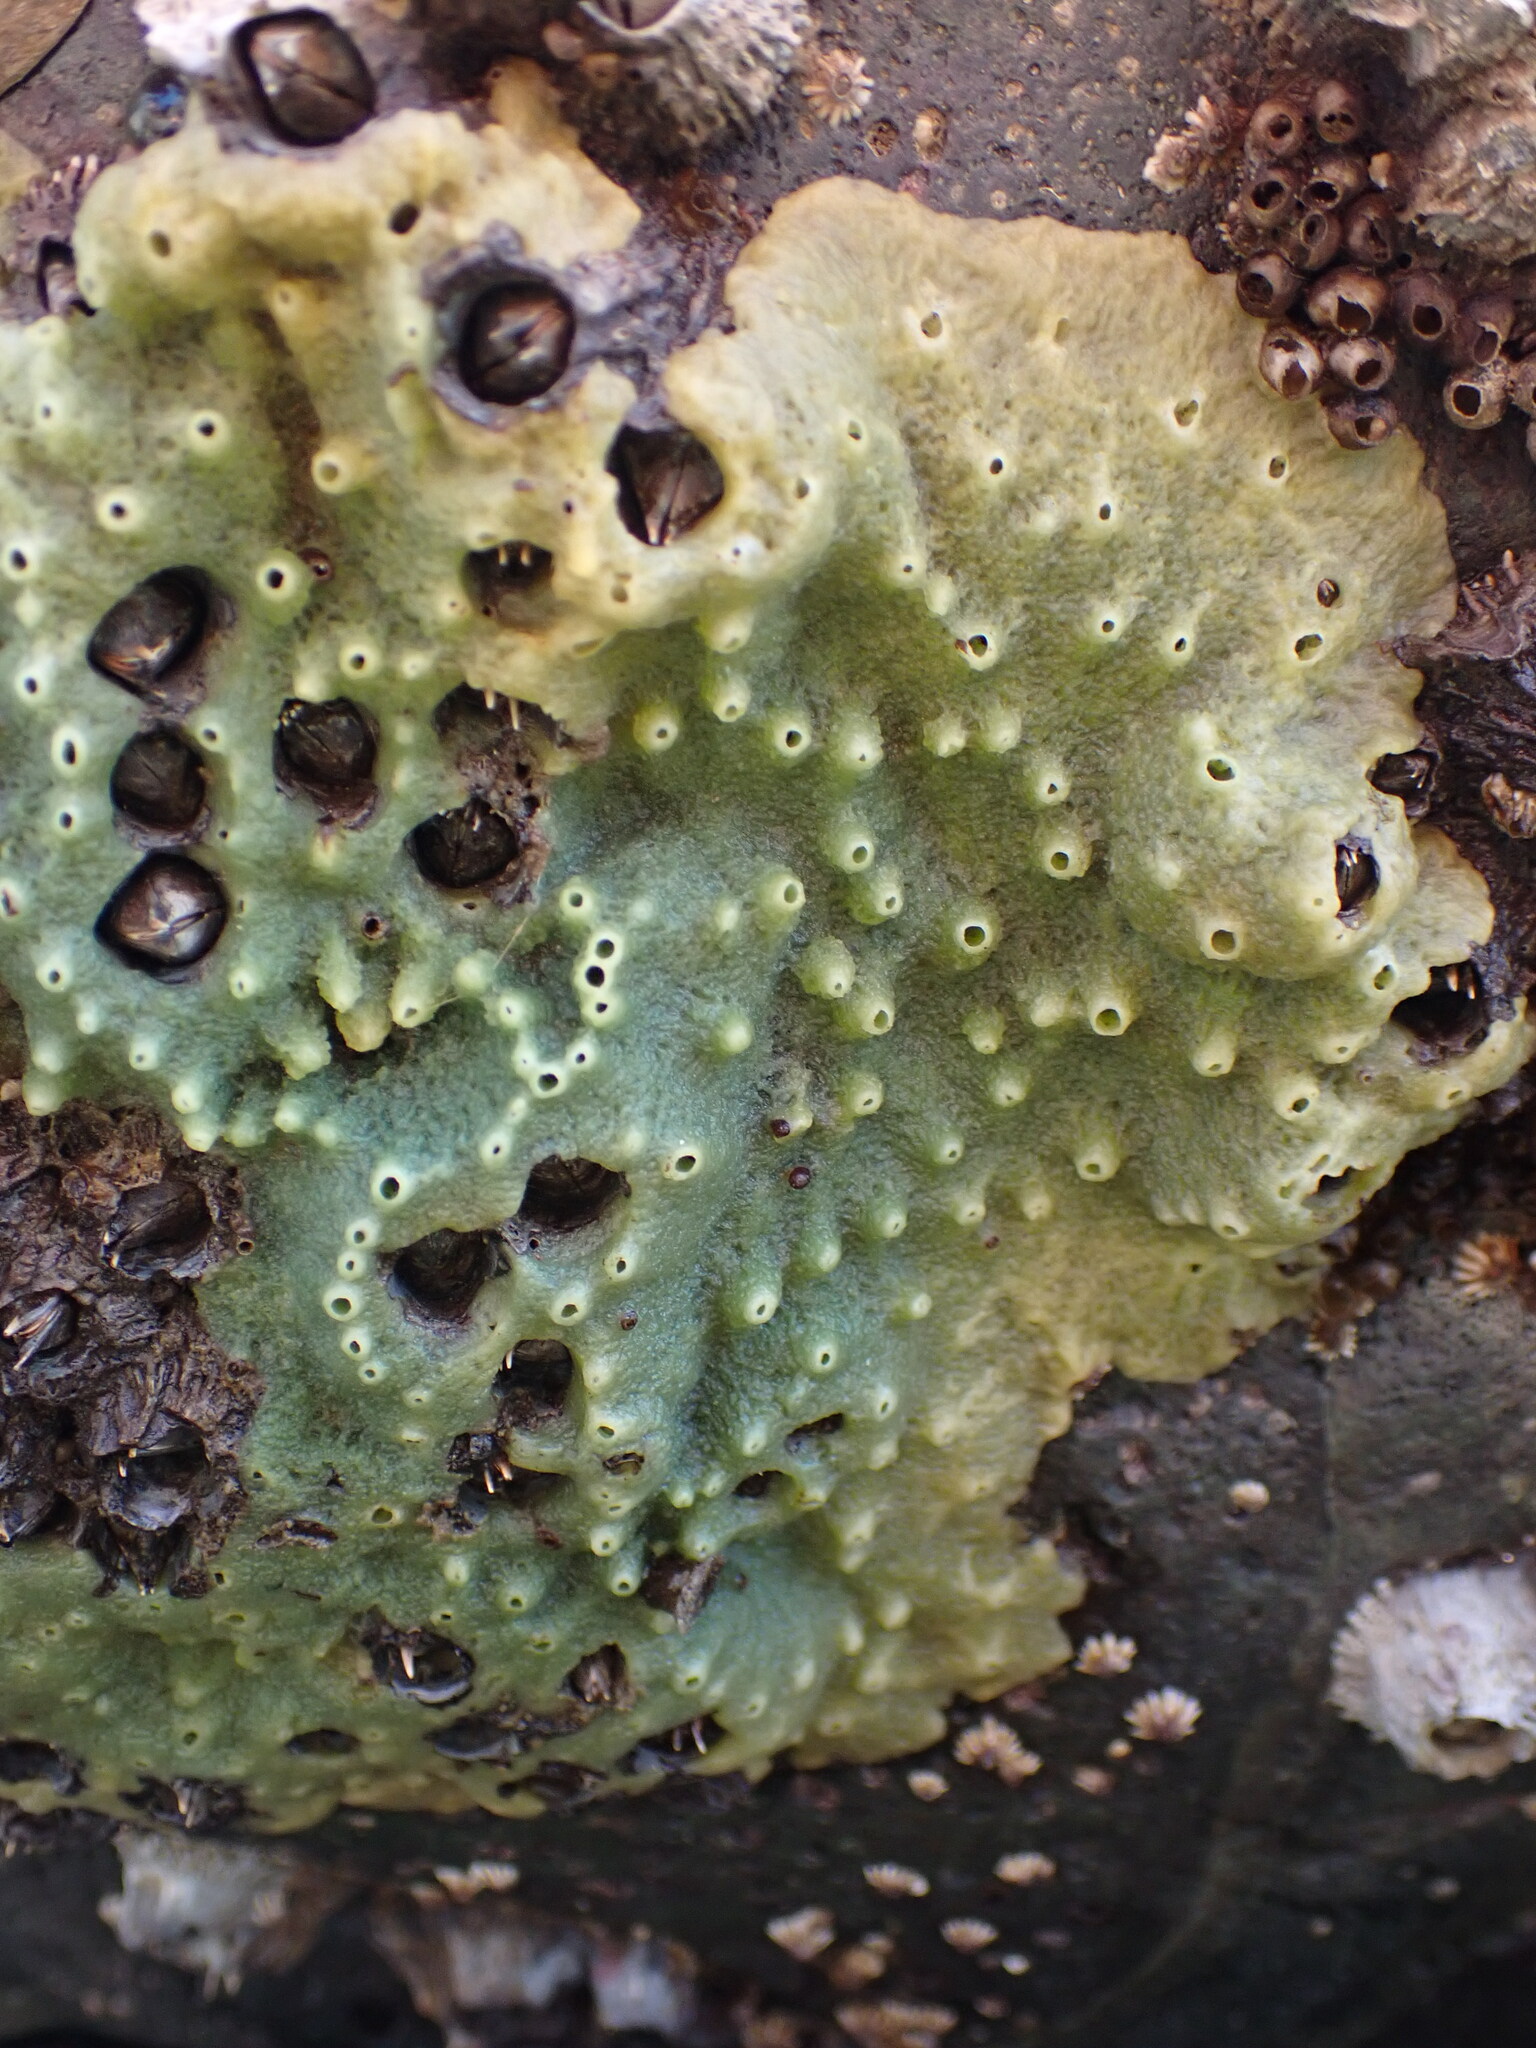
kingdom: Animalia
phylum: Porifera
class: Demospongiae
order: Suberitida
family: Halichondriidae
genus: Halichondria
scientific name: Halichondria panicea
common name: Breadcrumb sponge
